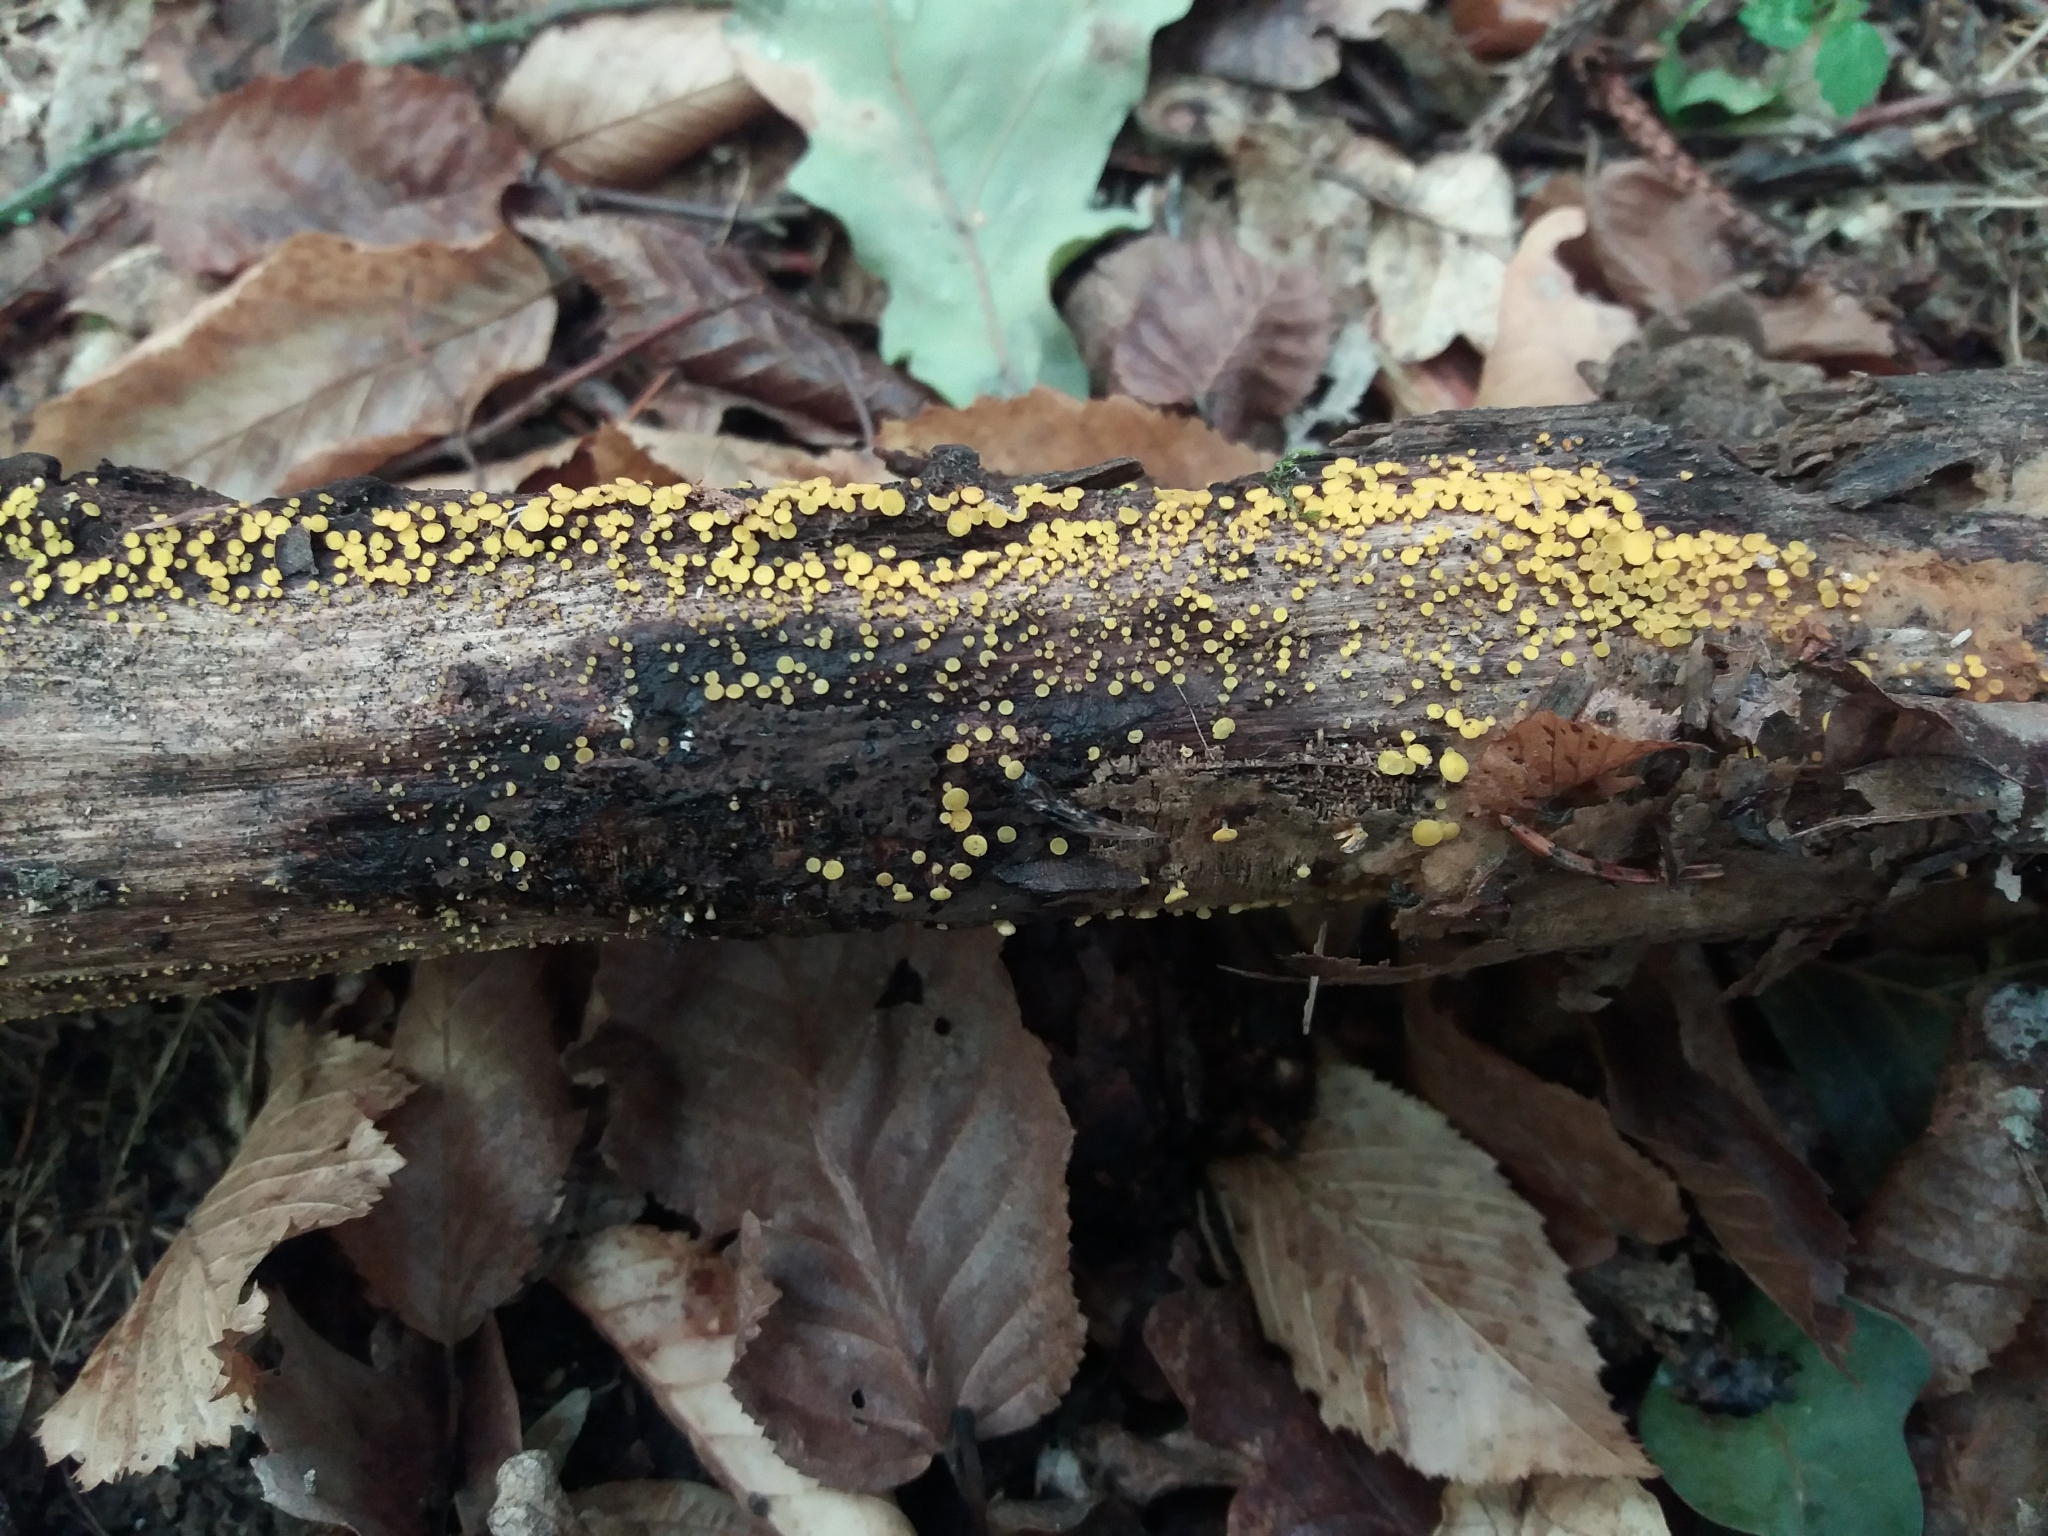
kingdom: Fungi
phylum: Ascomycota
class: Leotiomycetes
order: Helotiales
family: Pezizellaceae
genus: Calycina
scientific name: Calycina citrina
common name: Yellow fairy cups
